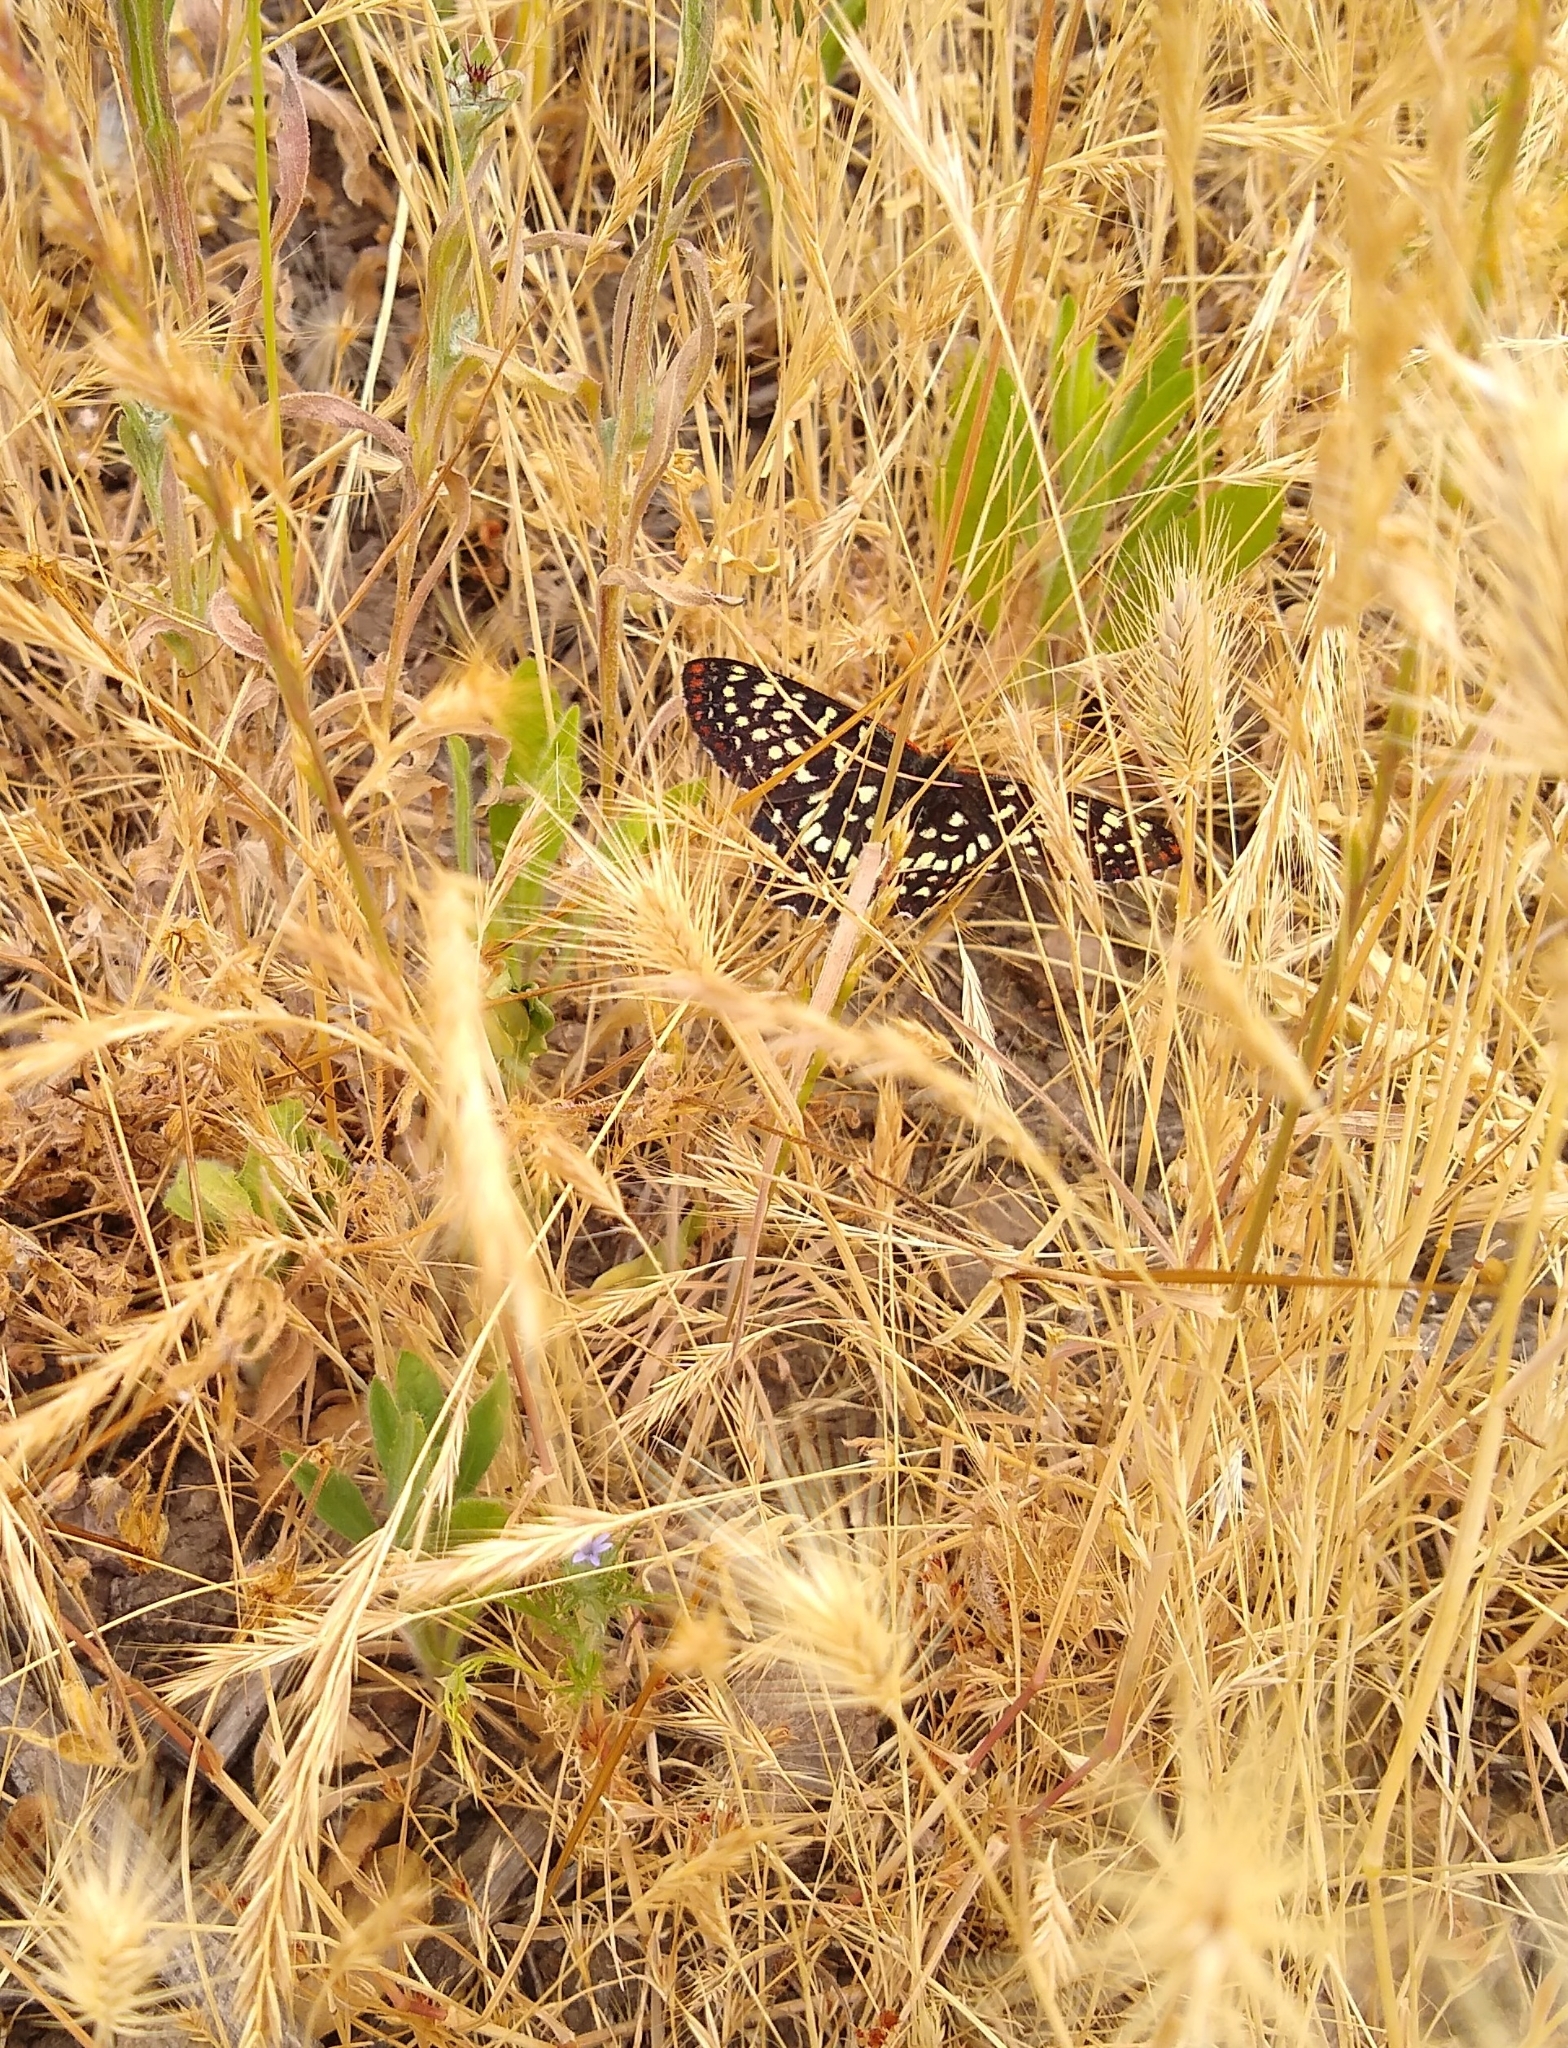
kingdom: Animalia
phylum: Arthropoda
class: Insecta
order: Lepidoptera
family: Nymphalidae
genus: Occidryas
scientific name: Occidryas chalcedona
